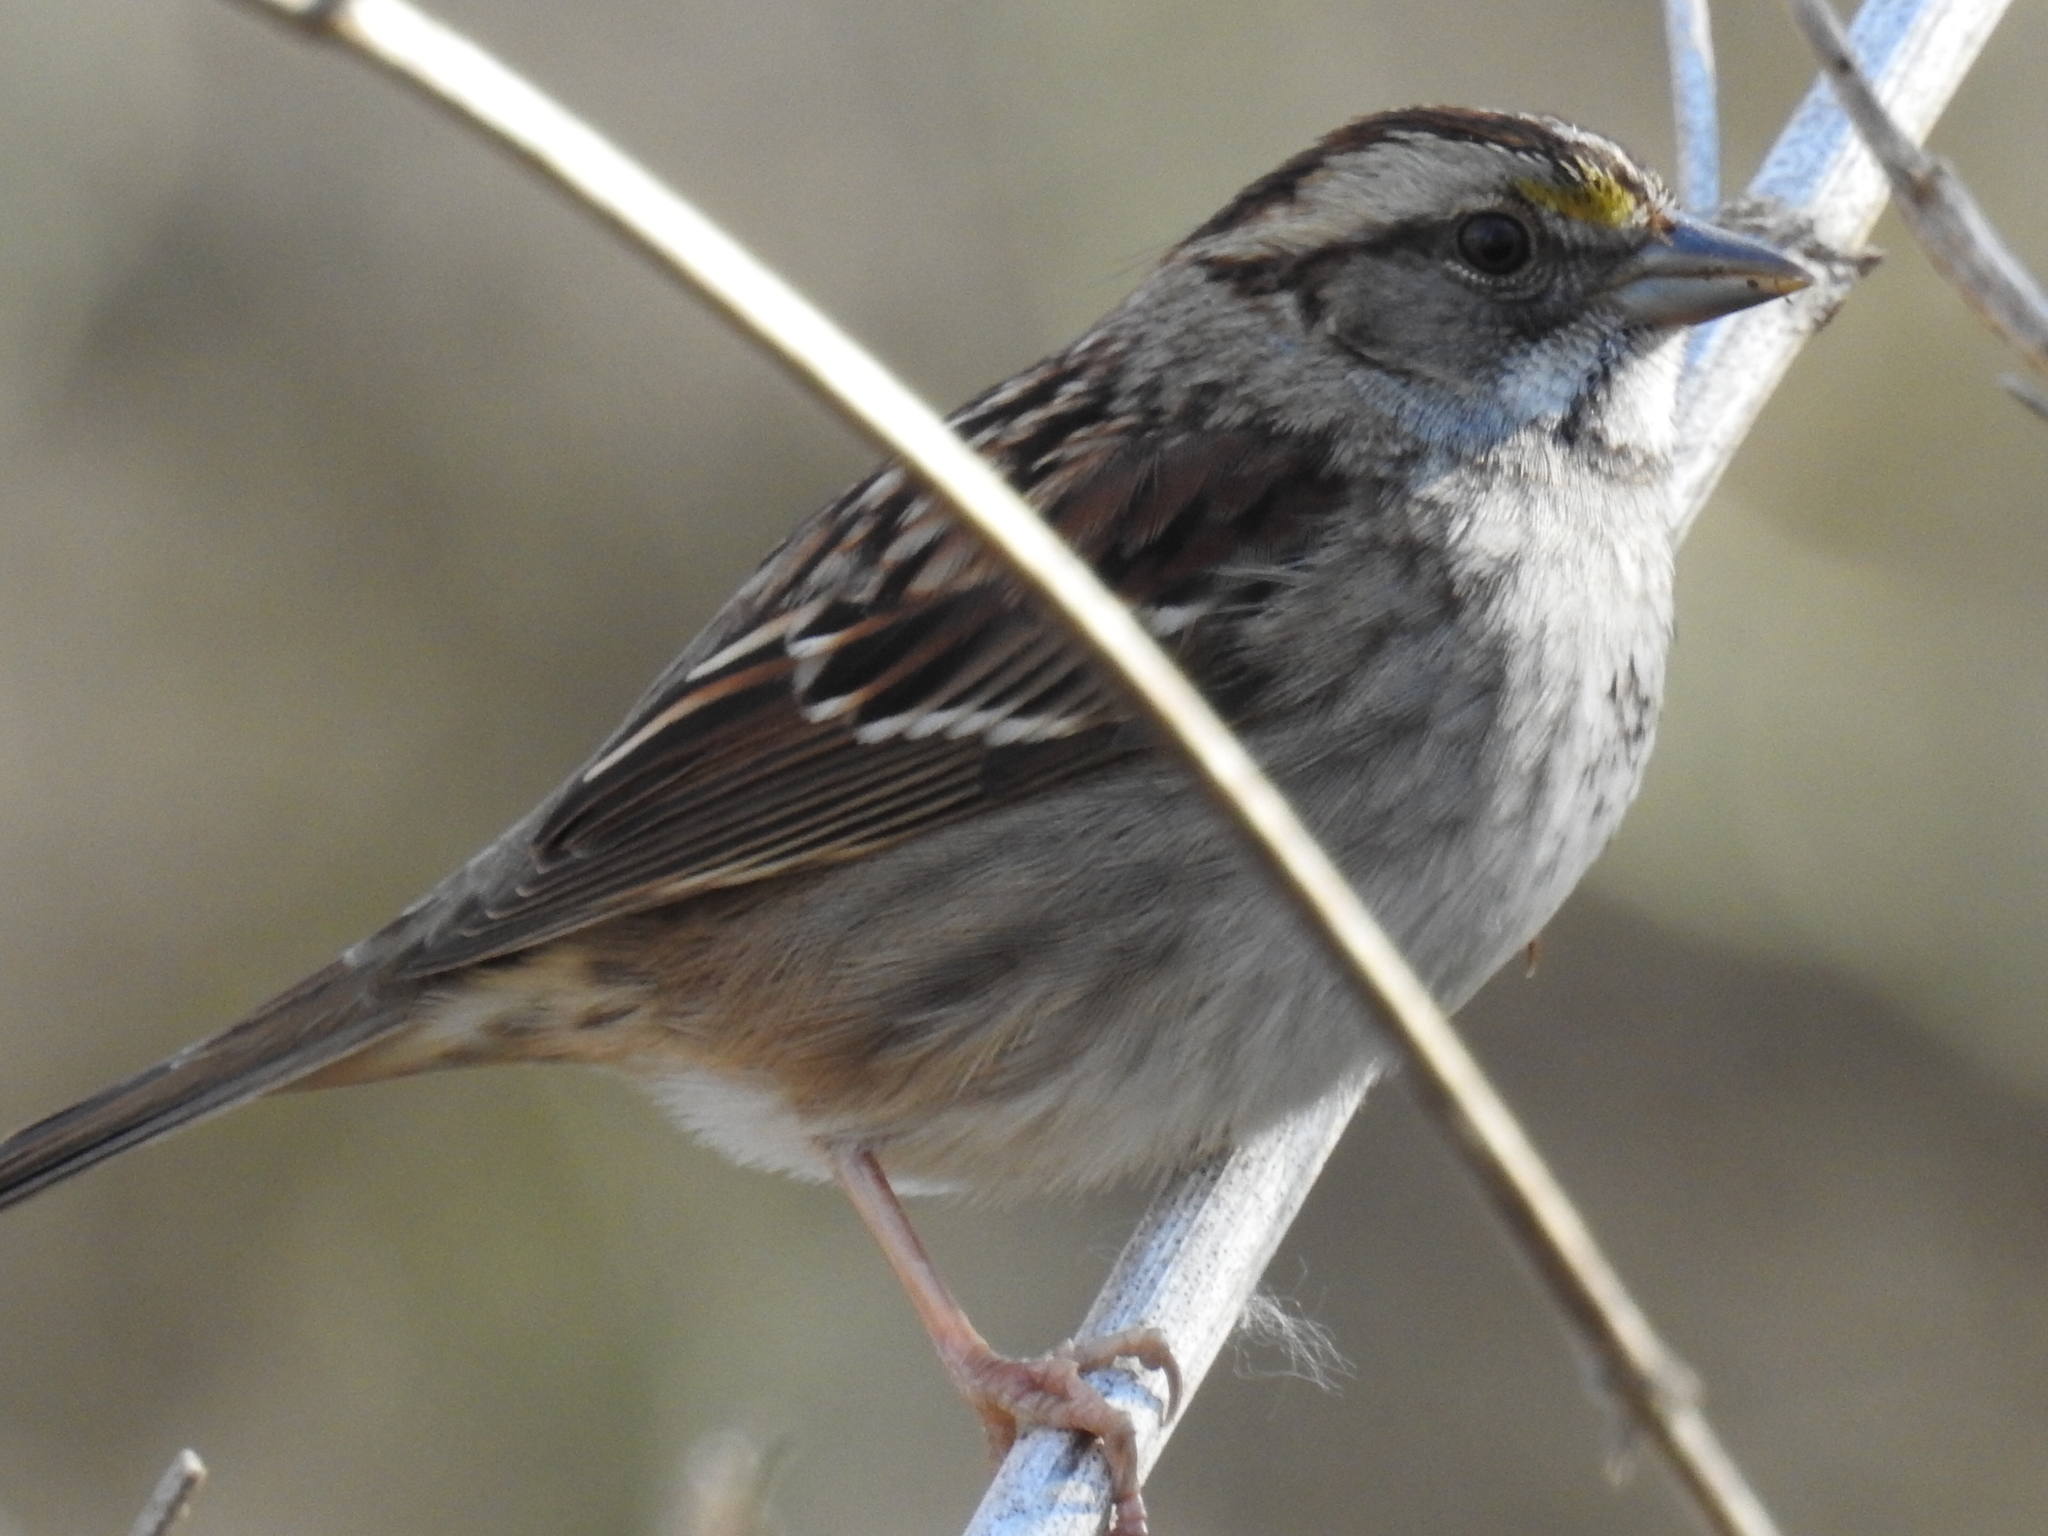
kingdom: Animalia
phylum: Chordata
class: Aves
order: Passeriformes
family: Passerellidae
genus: Zonotrichia
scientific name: Zonotrichia albicollis
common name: White-throated sparrow
